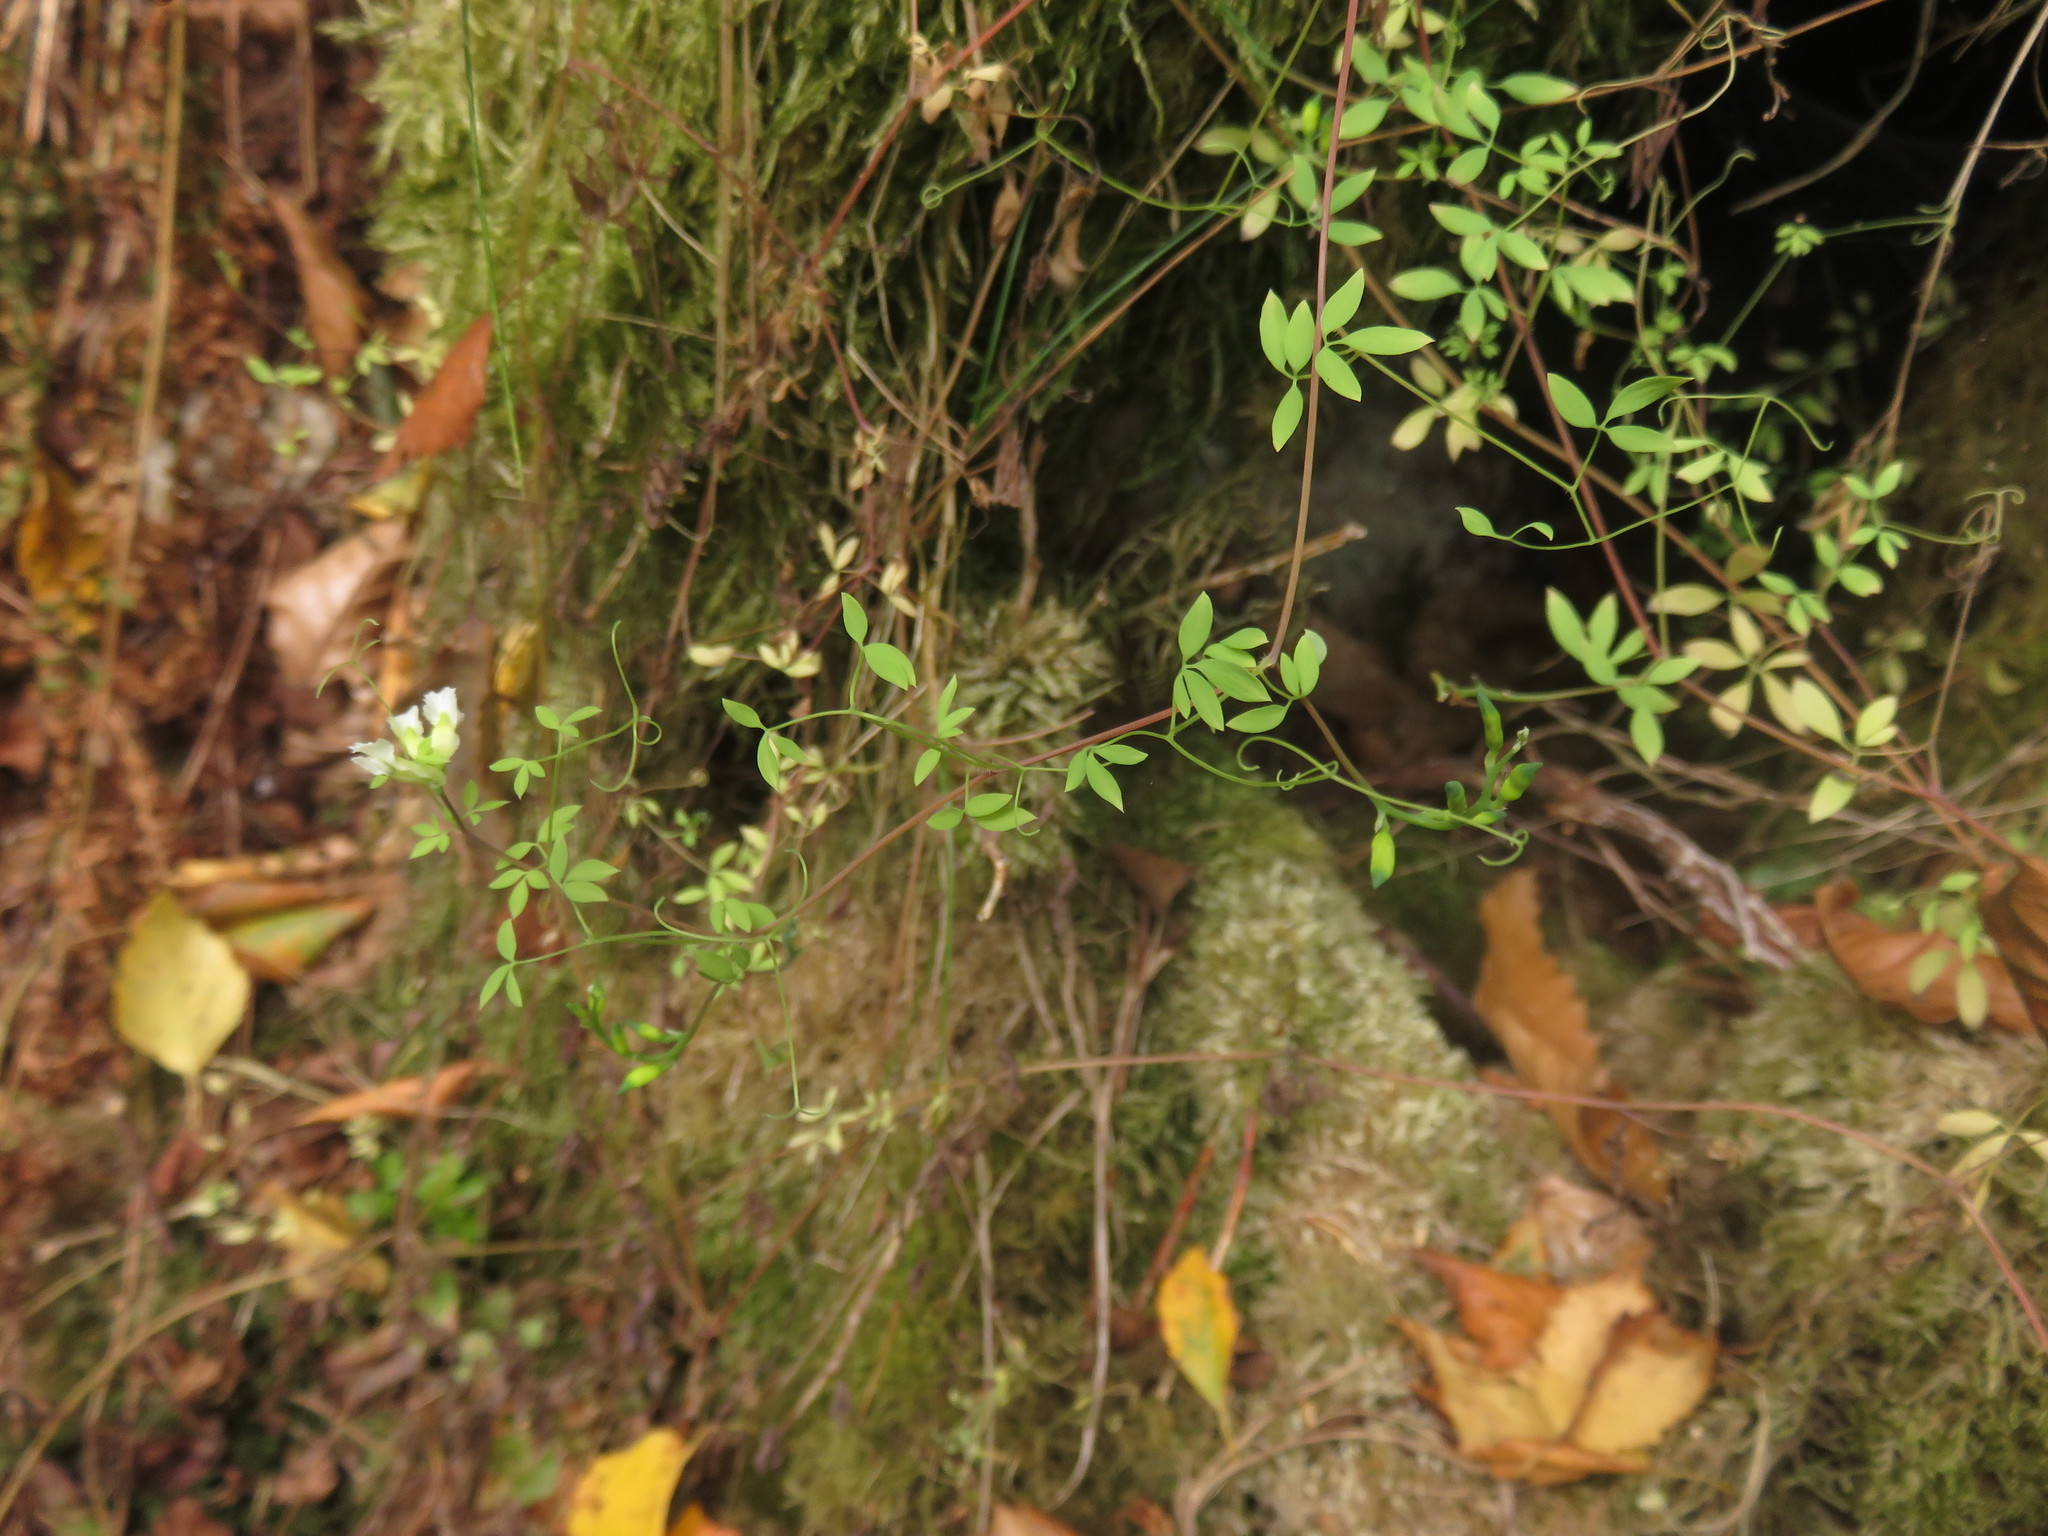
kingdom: Plantae
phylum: Tracheophyta
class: Magnoliopsida
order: Ranunculales
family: Papaveraceae
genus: Ceratocapnos
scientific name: Ceratocapnos claviculata
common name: Climbing corydalis
